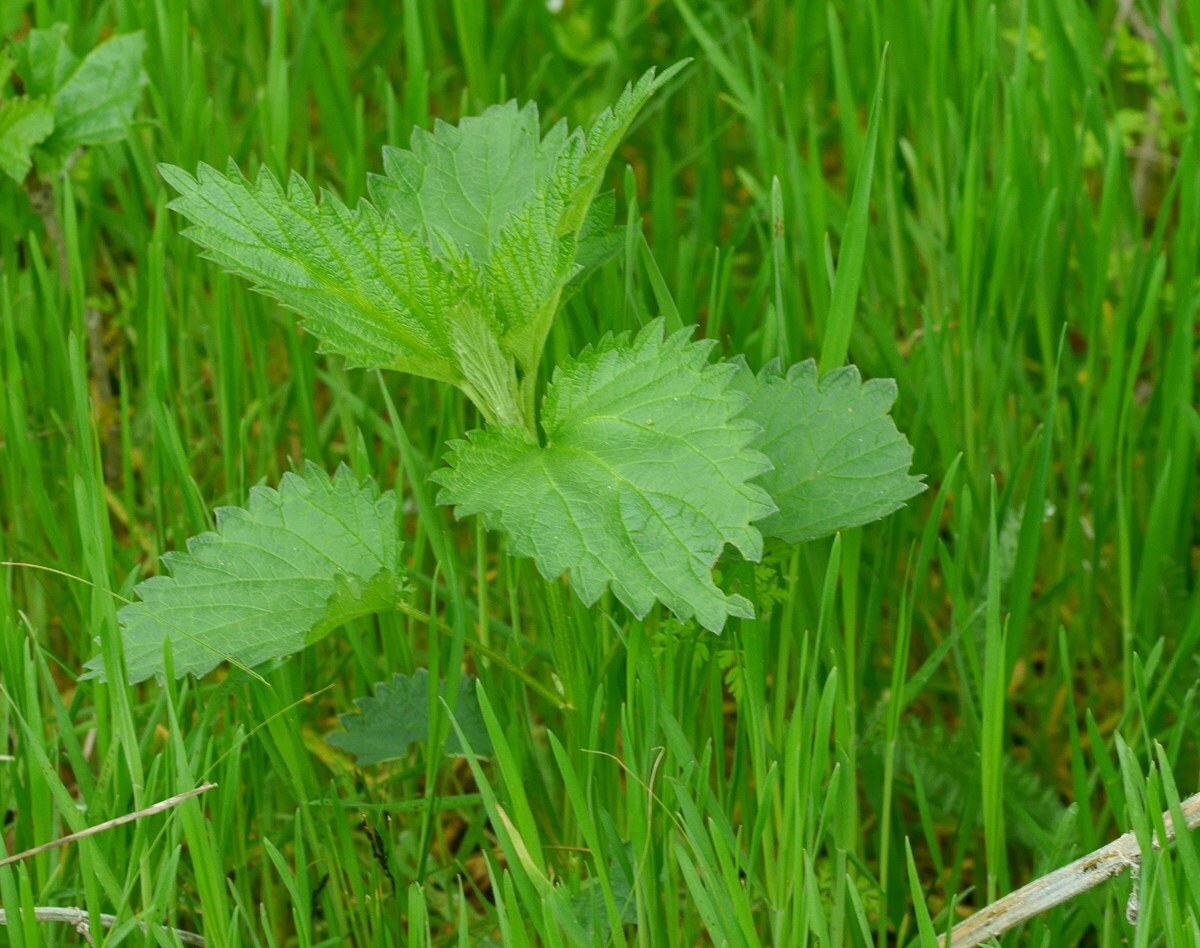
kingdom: Plantae
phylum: Tracheophyta
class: Magnoliopsida
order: Rosales
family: Urticaceae
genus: Urtica
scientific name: Urtica dioica
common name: Common nettle
